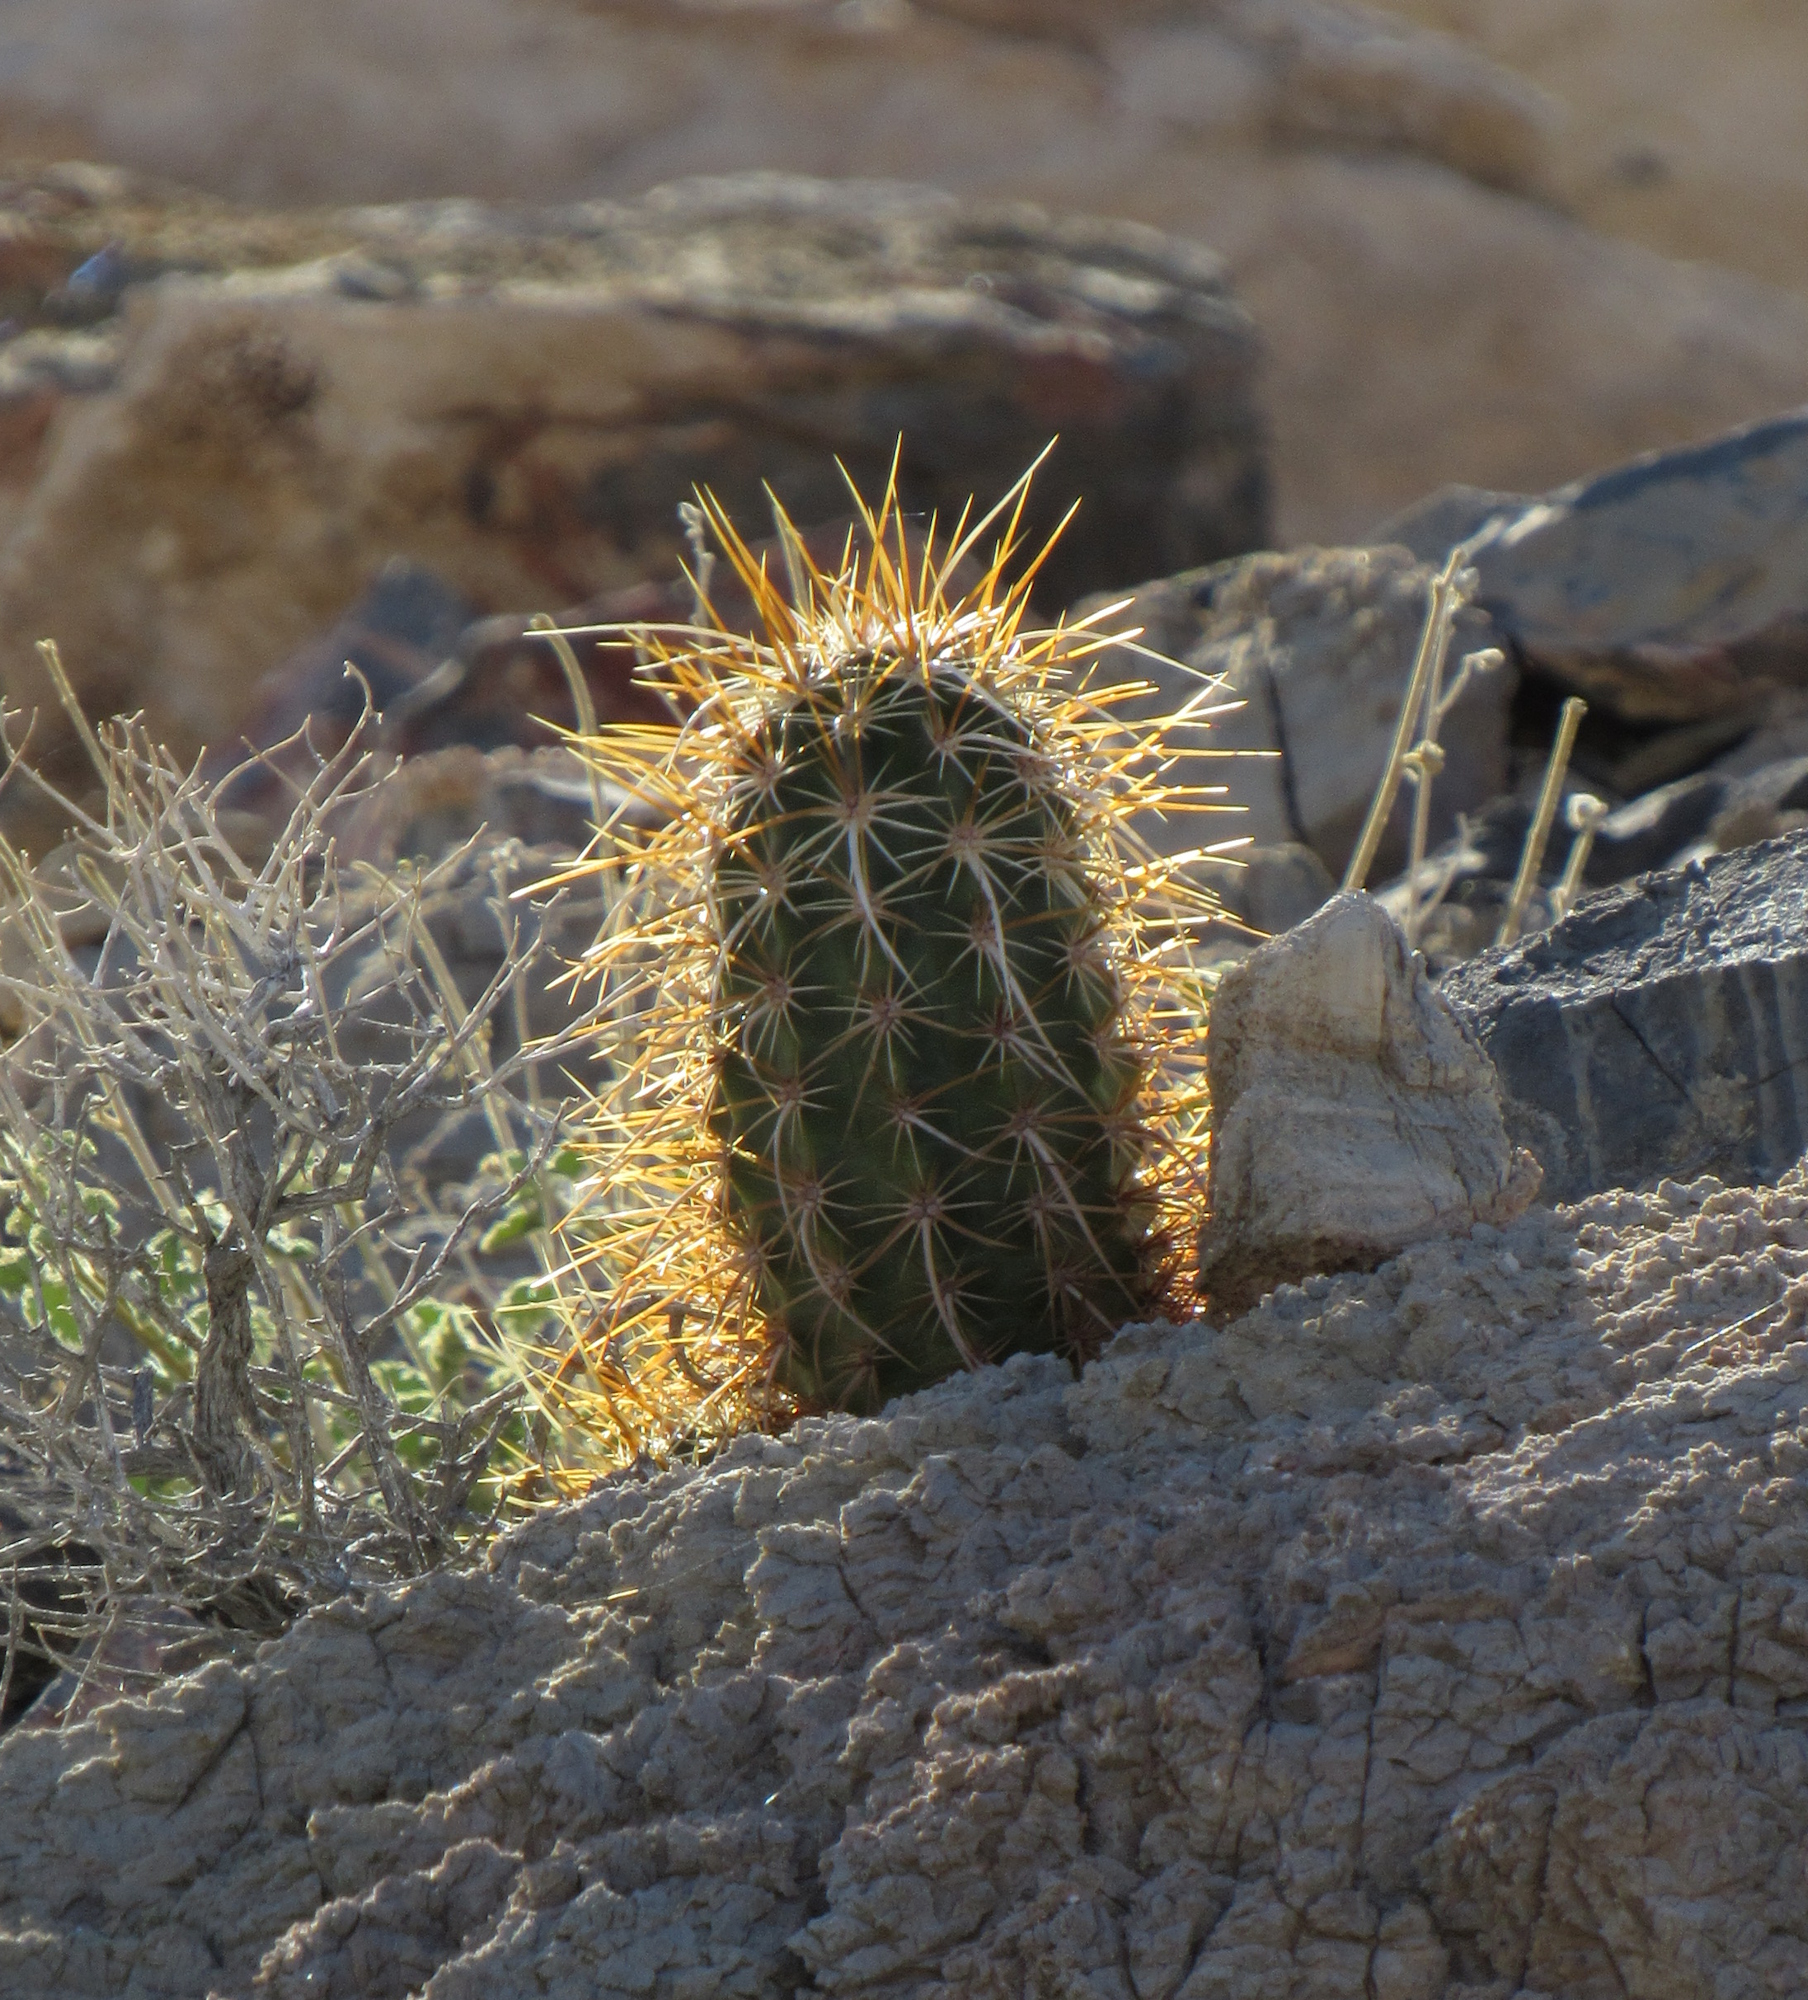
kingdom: Plantae
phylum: Tracheophyta
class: Magnoliopsida
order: Caryophyllales
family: Cactaceae
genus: Echinocereus
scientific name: Echinocereus engelmannii
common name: Engelmann's hedgehog cactus
